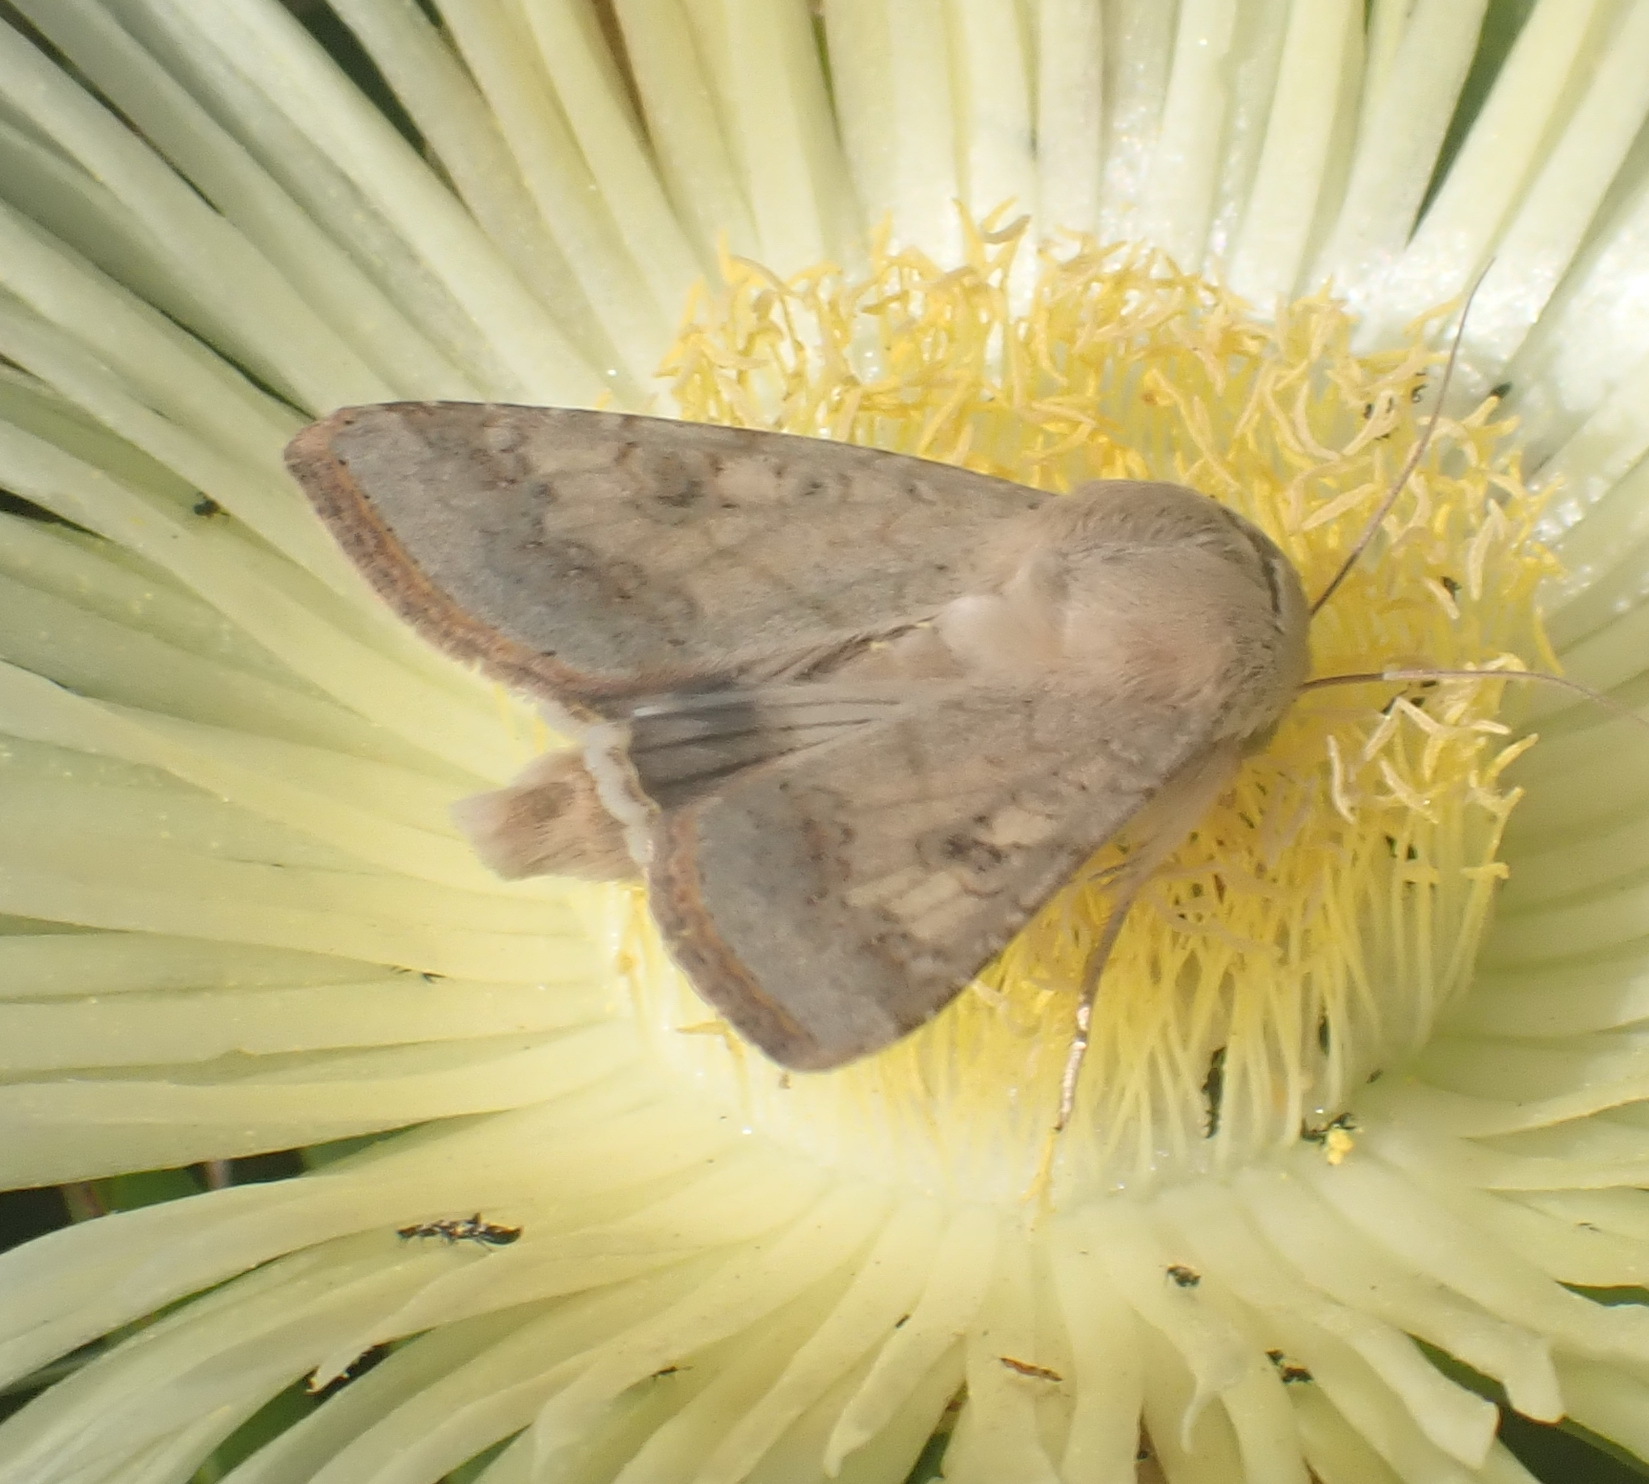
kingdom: Animalia
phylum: Arthropoda
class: Insecta
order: Lepidoptera
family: Noctuidae
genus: Helicoverpa
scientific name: Helicoverpa armigera
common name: Cotton bollworm
